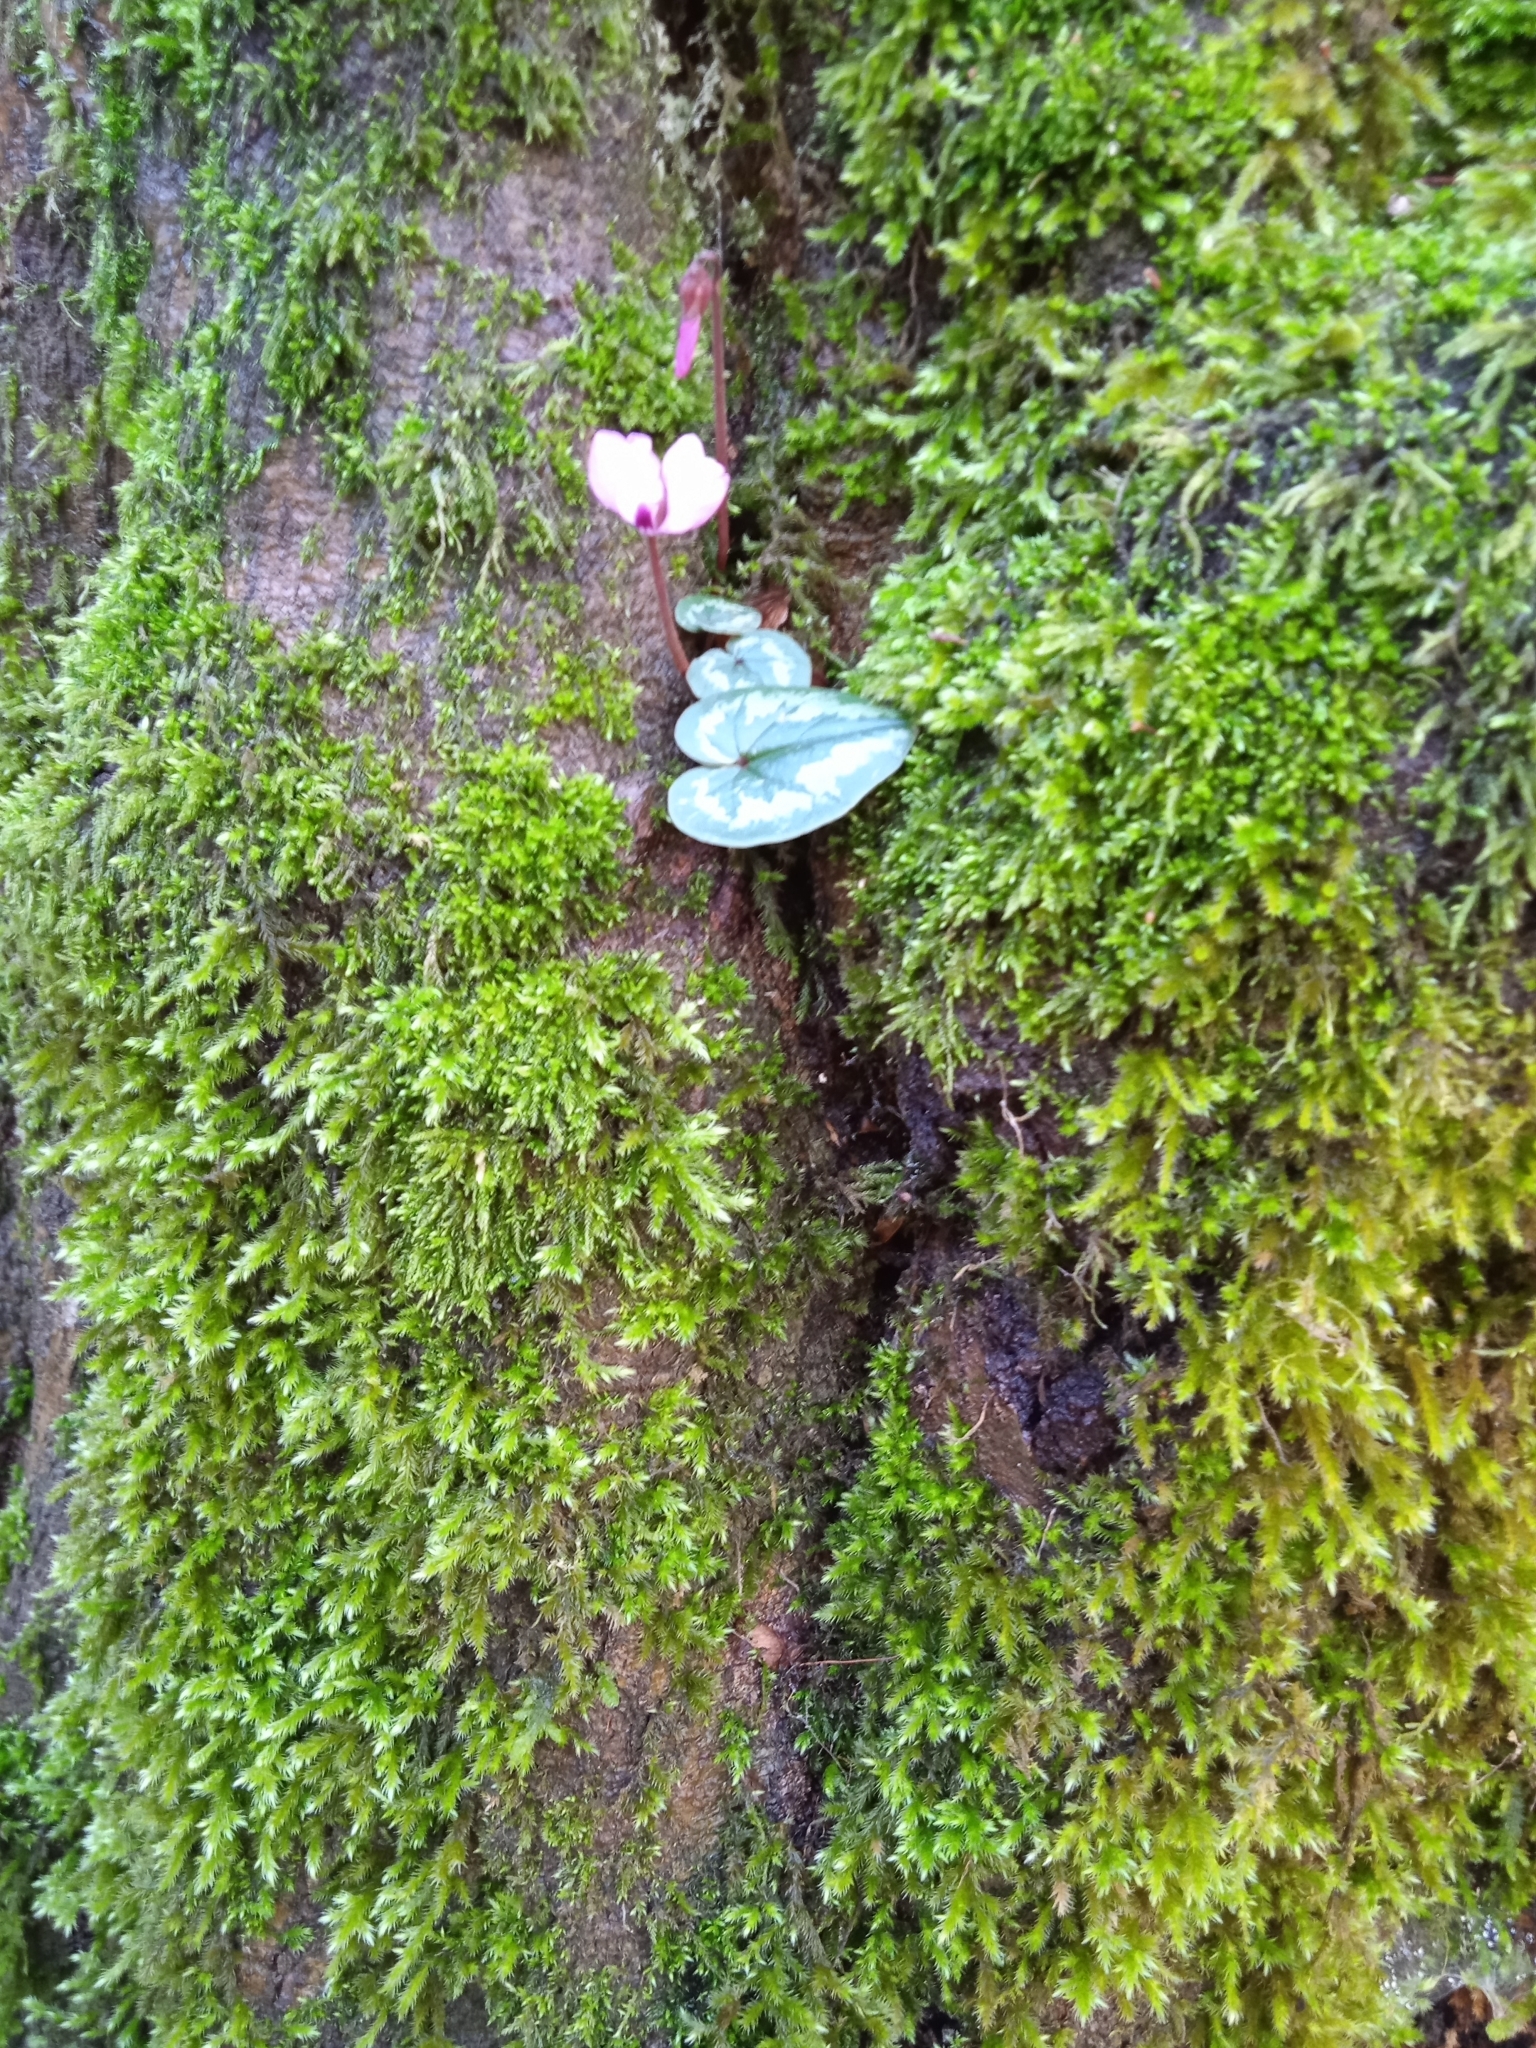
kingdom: Plantae
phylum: Tracheophyta
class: Magnoliopsida
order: Ericales
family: Primulaceae
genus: Cyclamen
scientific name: Cyclamen coum
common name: Eastern sowbread
